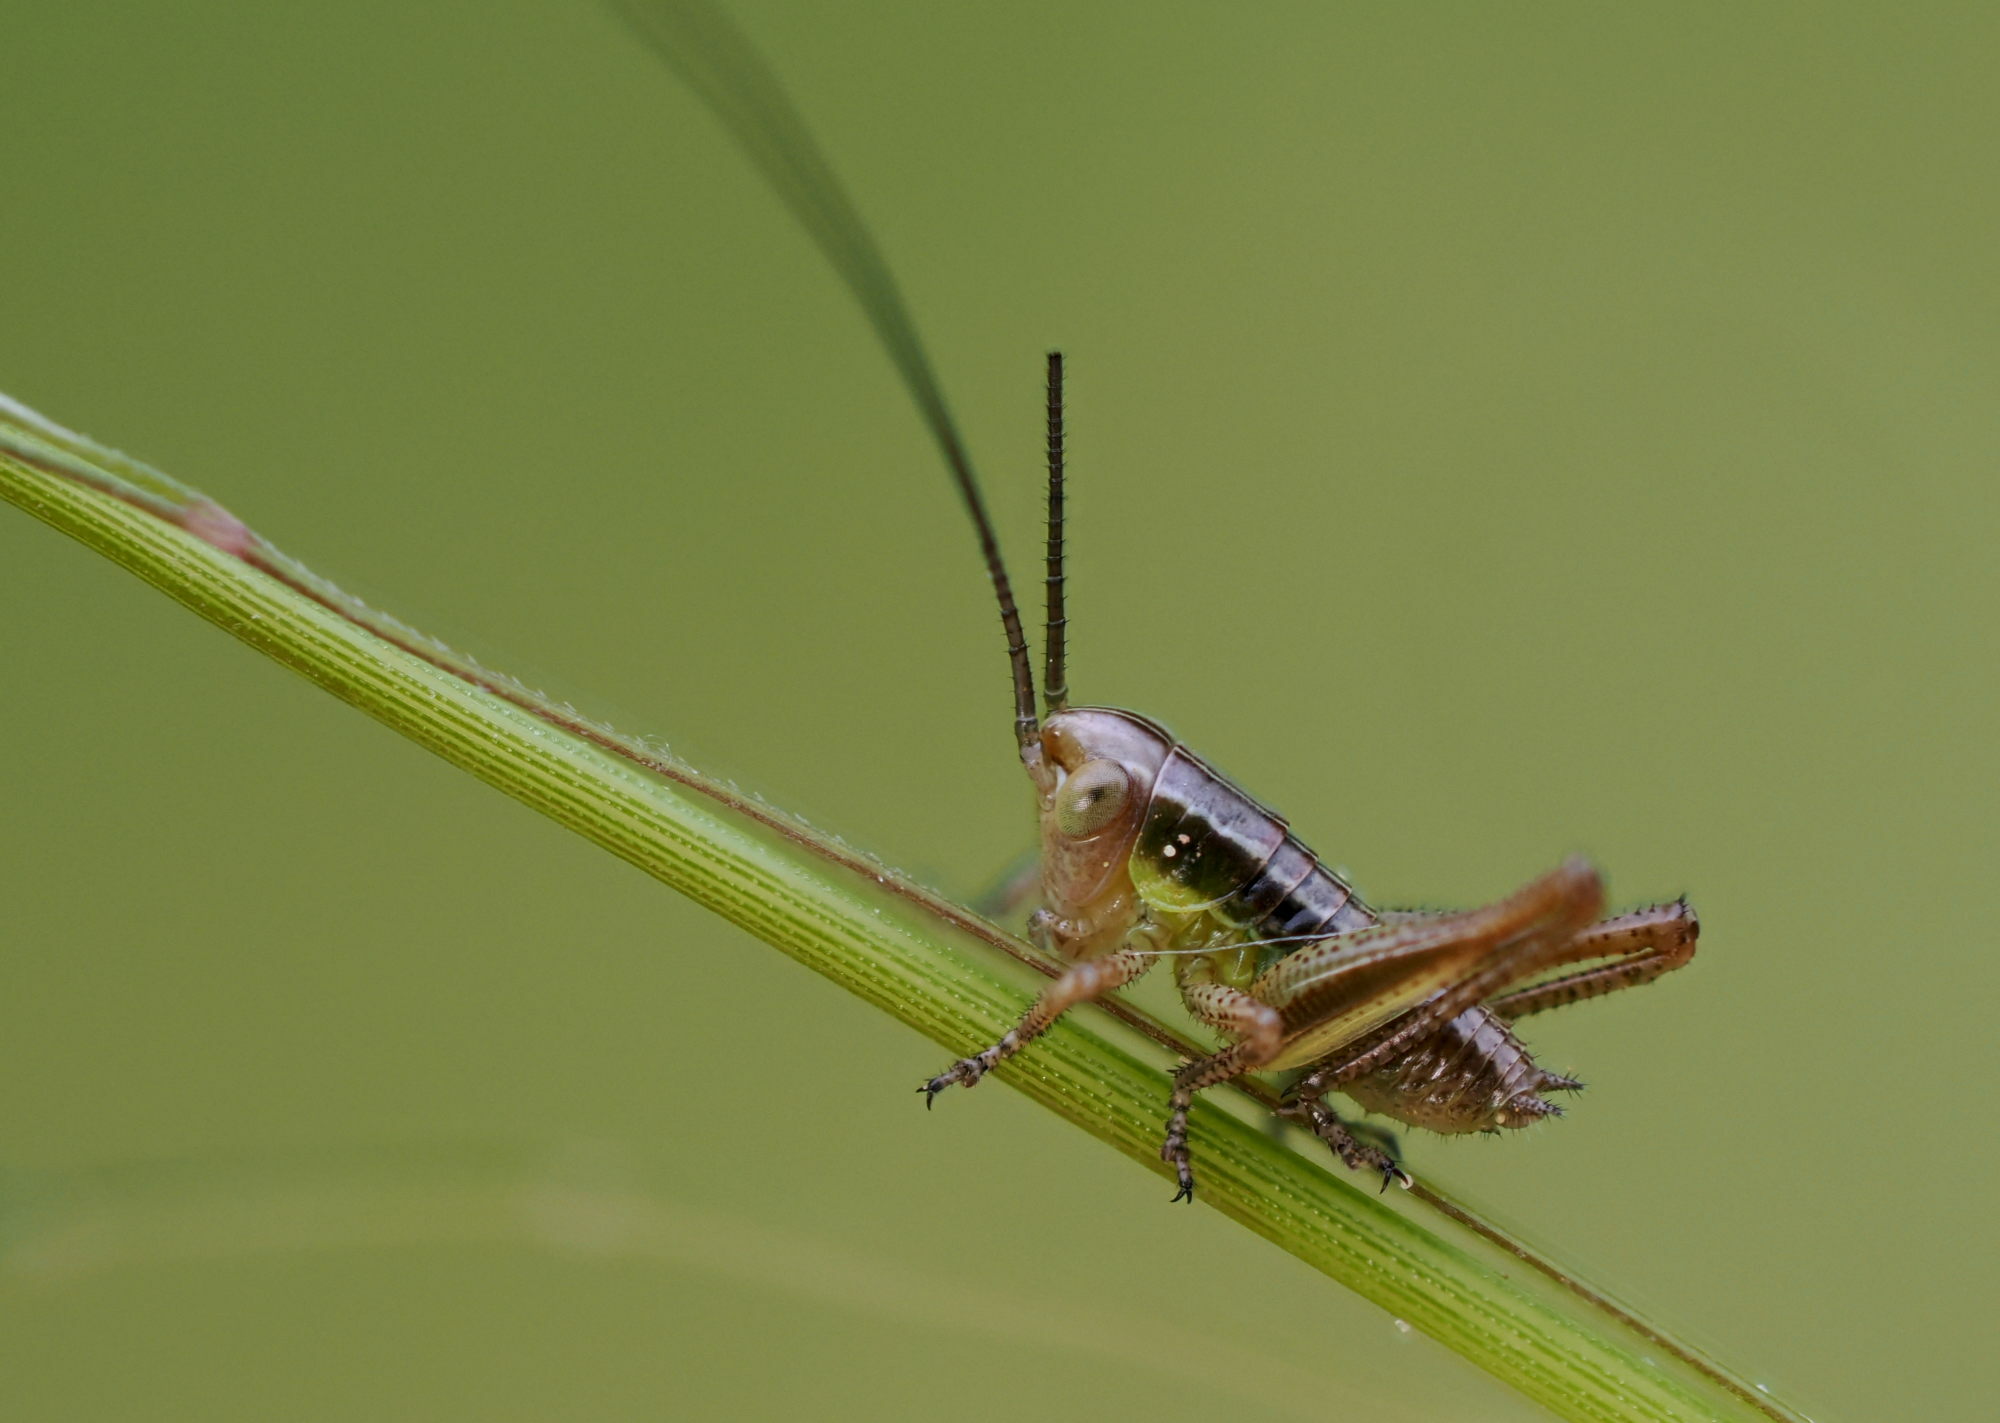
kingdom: Animalia
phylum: Arthropoda
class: Insecta
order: Orthoptera
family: Tettigoniidae
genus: Roeseliana
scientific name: Roeseliana roeselii
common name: Roesel's bush cricket
